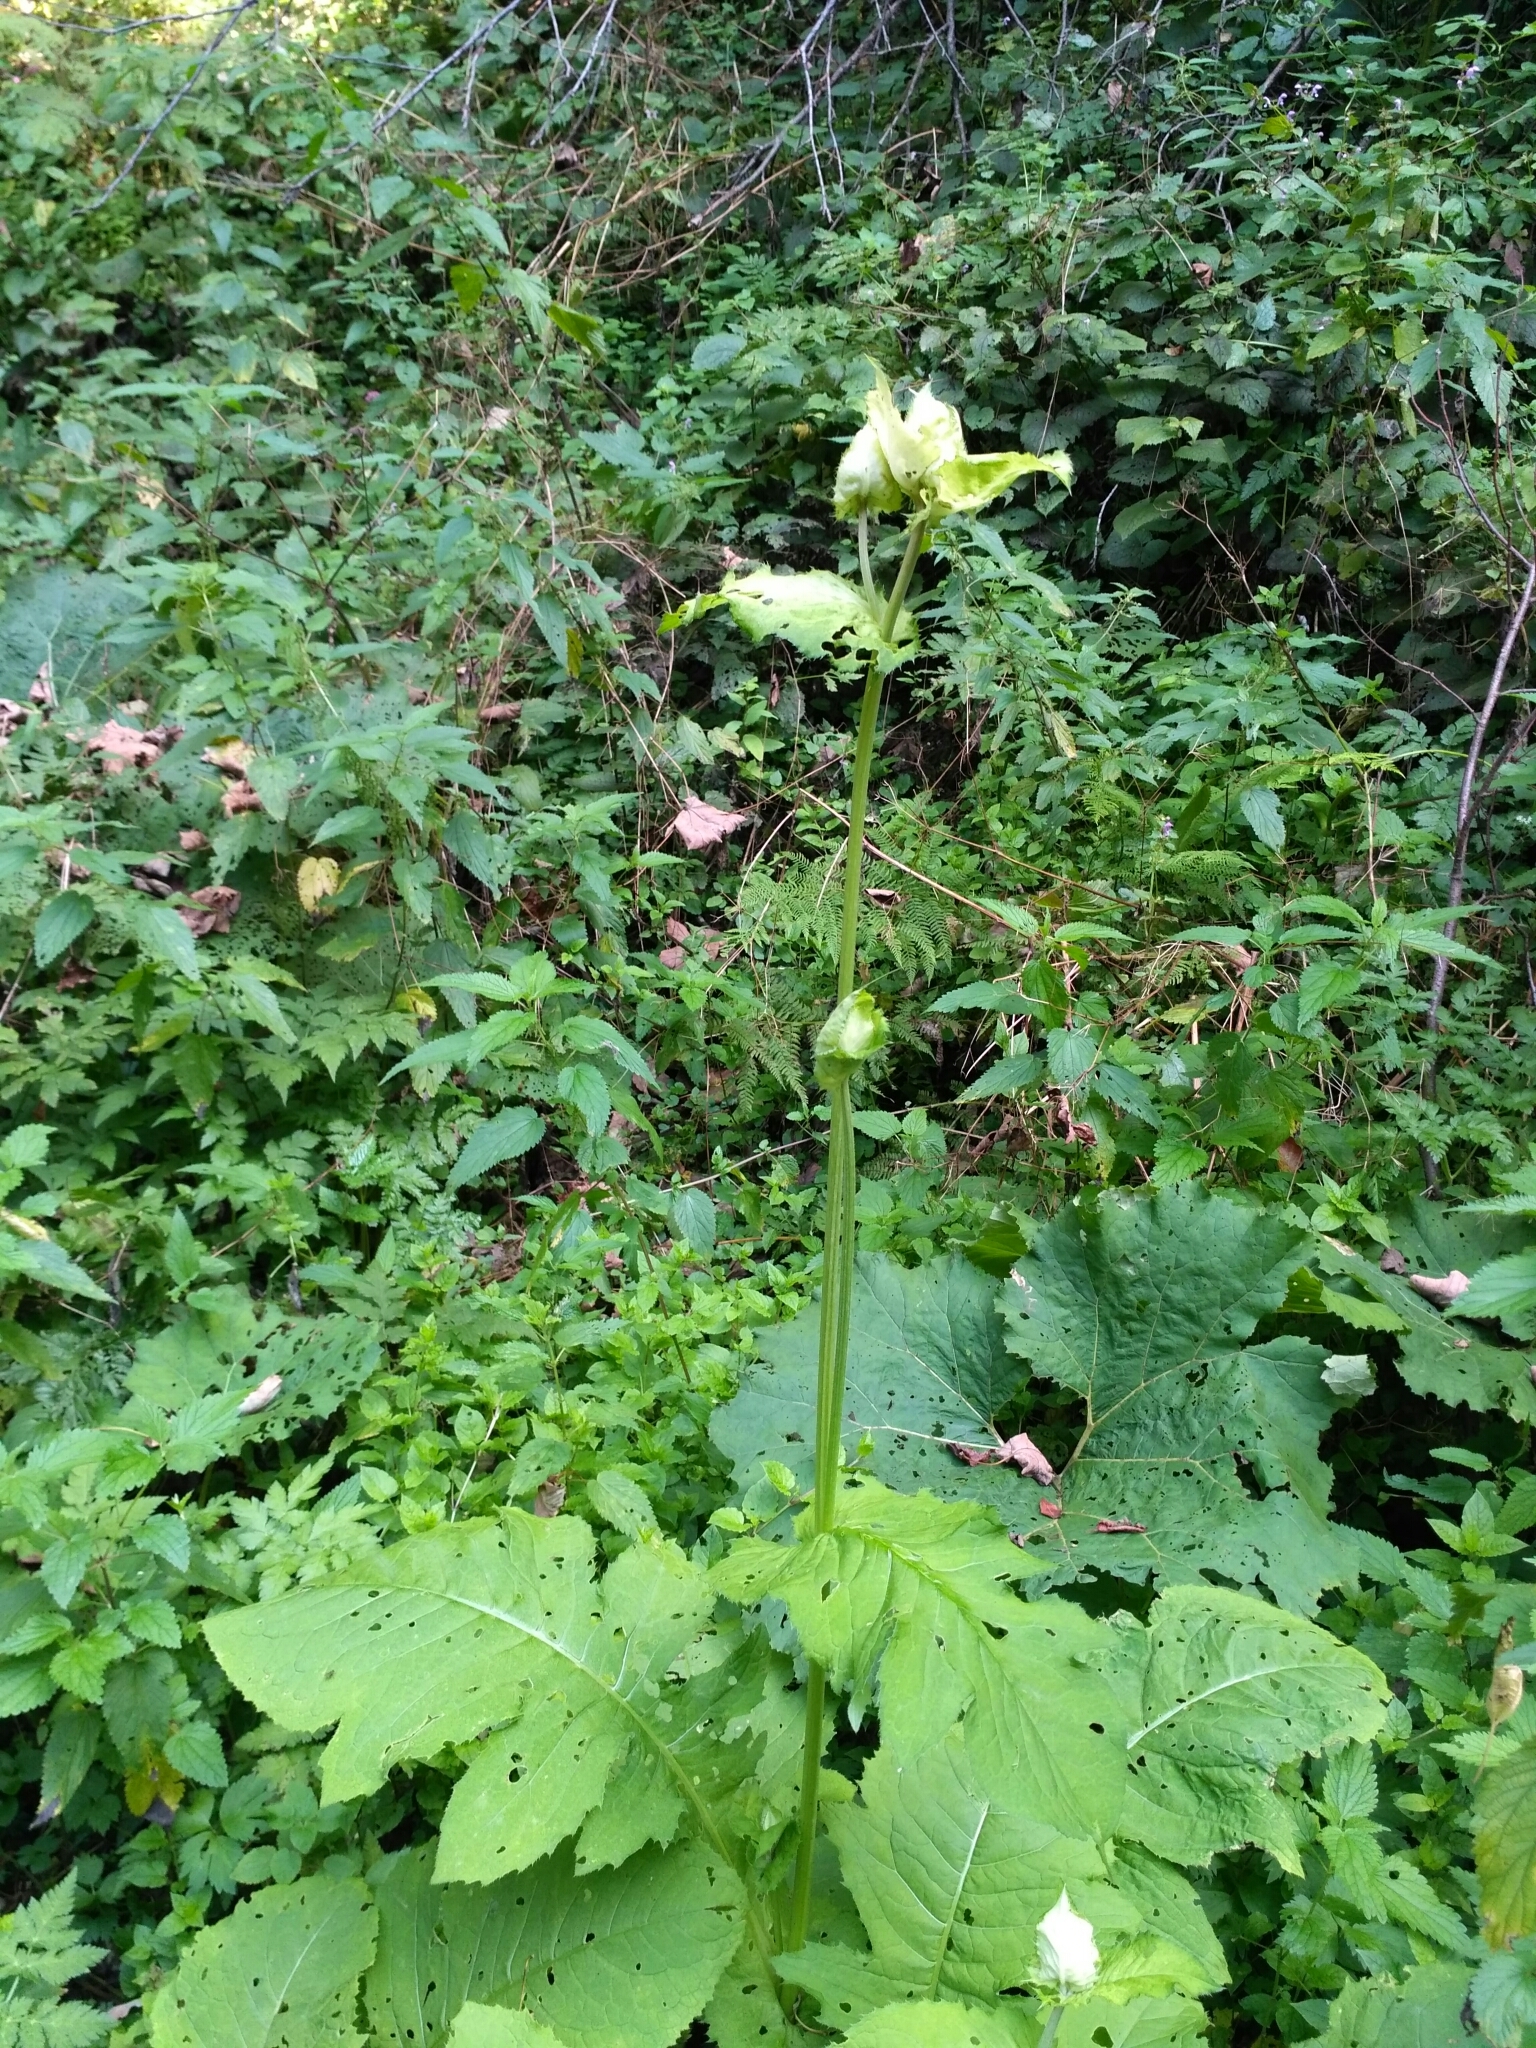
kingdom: Plantae
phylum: Tracheophyta
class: Magnoliopsida
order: Asterales
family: Asteraceae
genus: Cirsium
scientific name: Cirsium oleraceum
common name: Cabbage thistle
